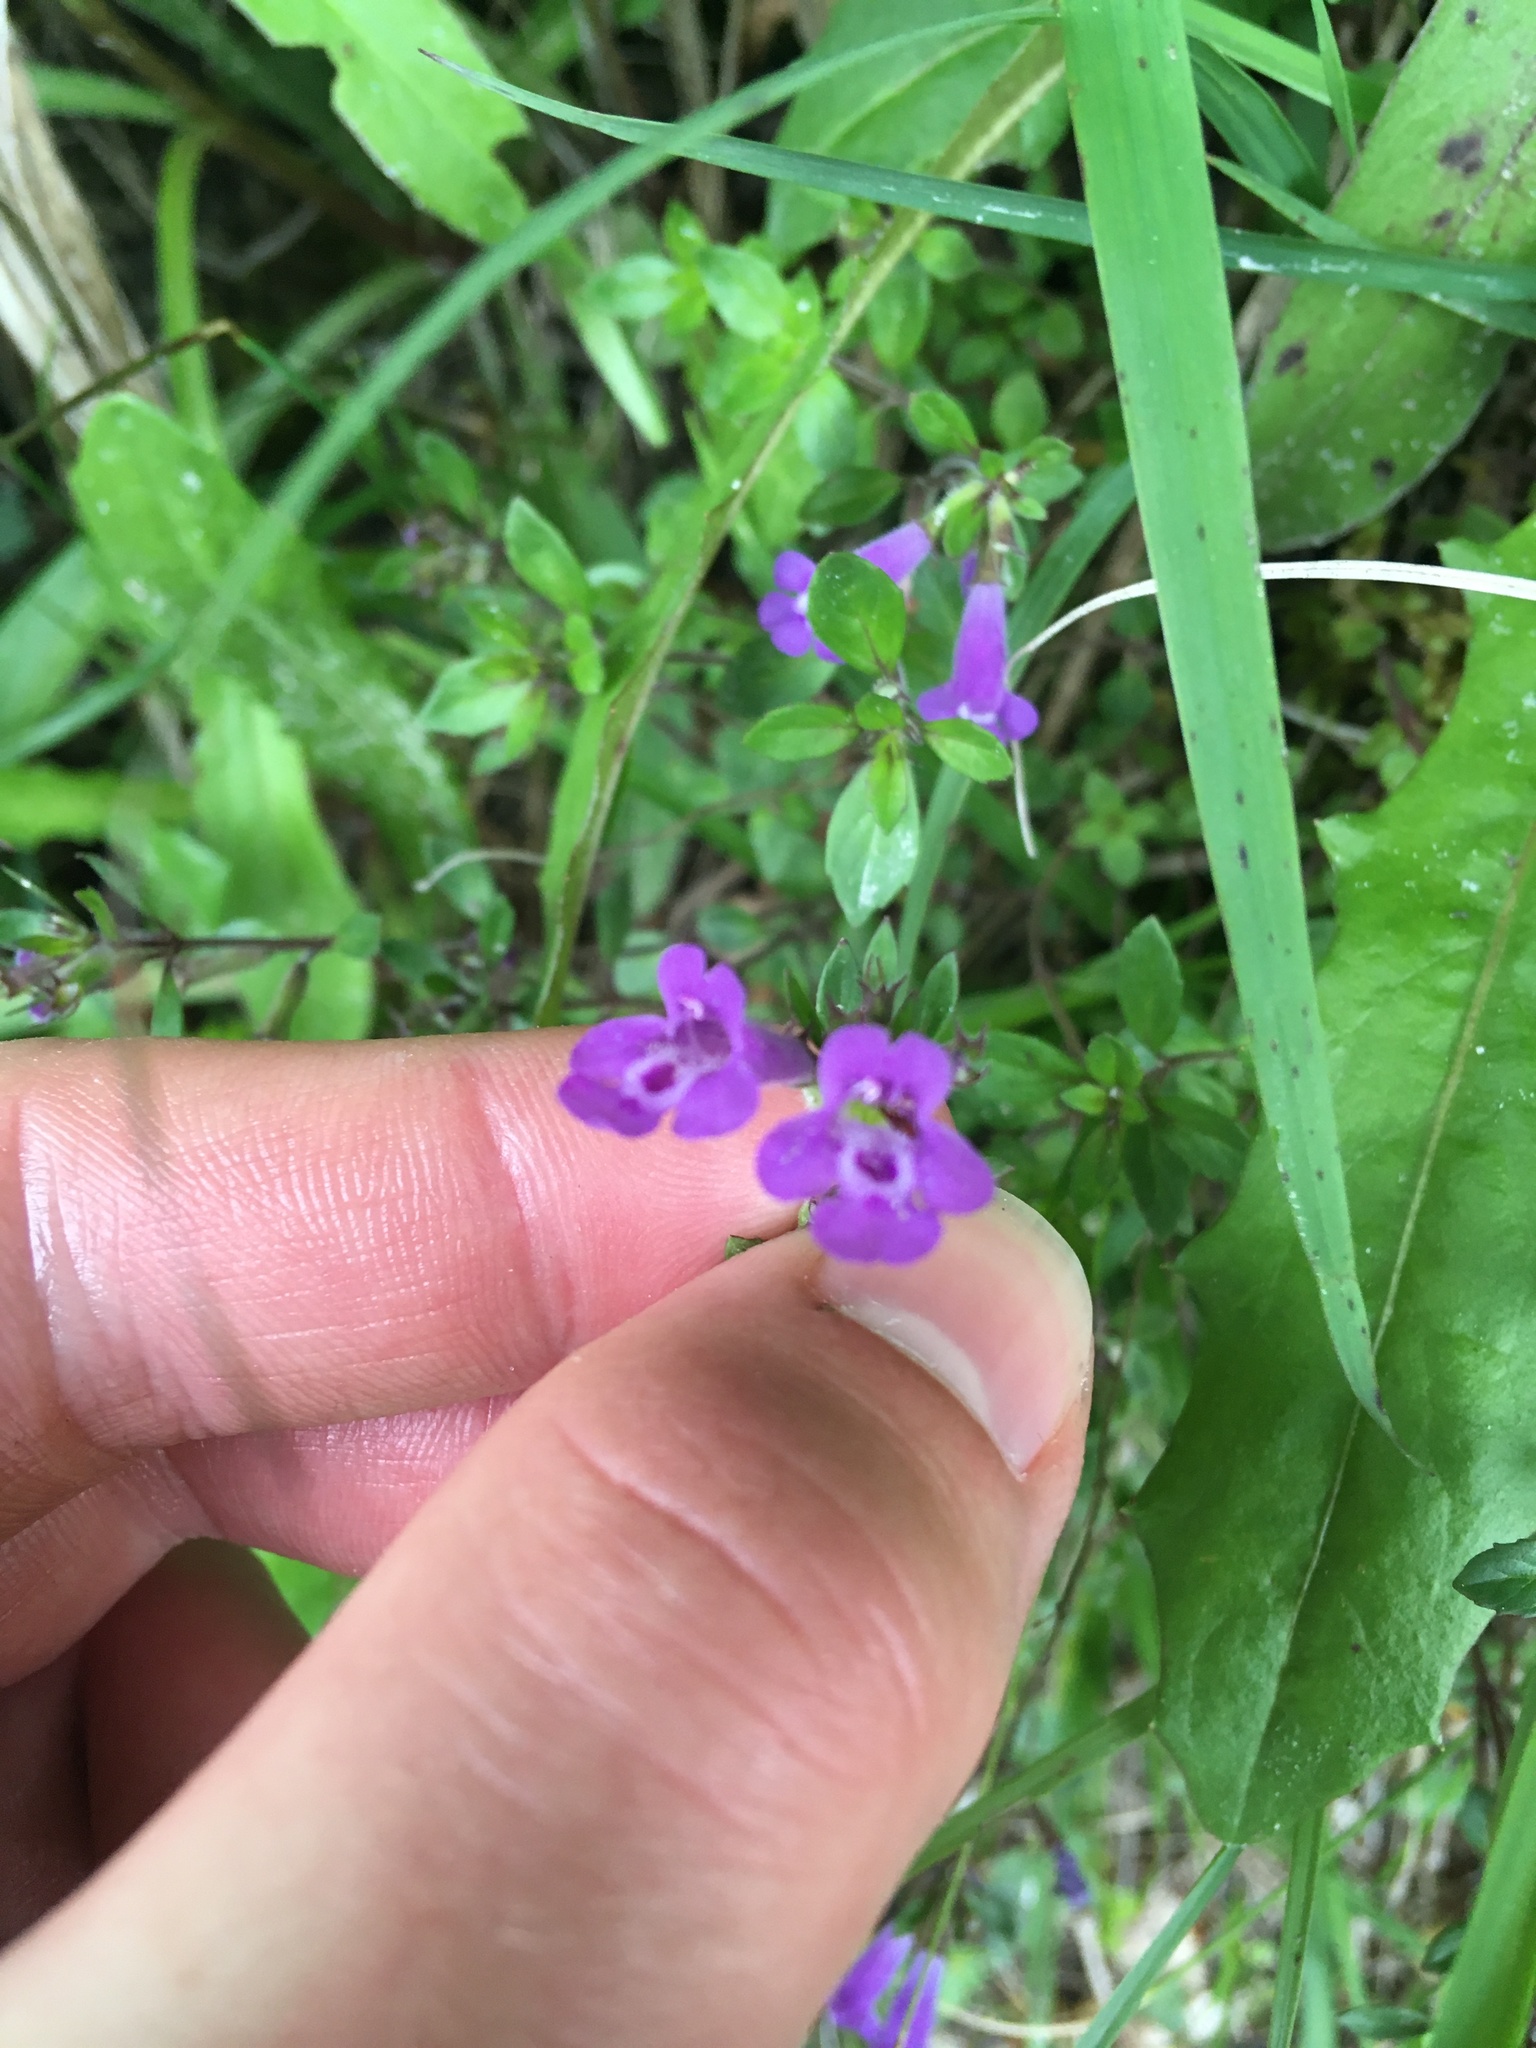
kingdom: Plantae
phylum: Tracheophyta
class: Magnoliopsida
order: Lamiales
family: Lamiaceae
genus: Clinopodium
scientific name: Clinopodium alpinum
